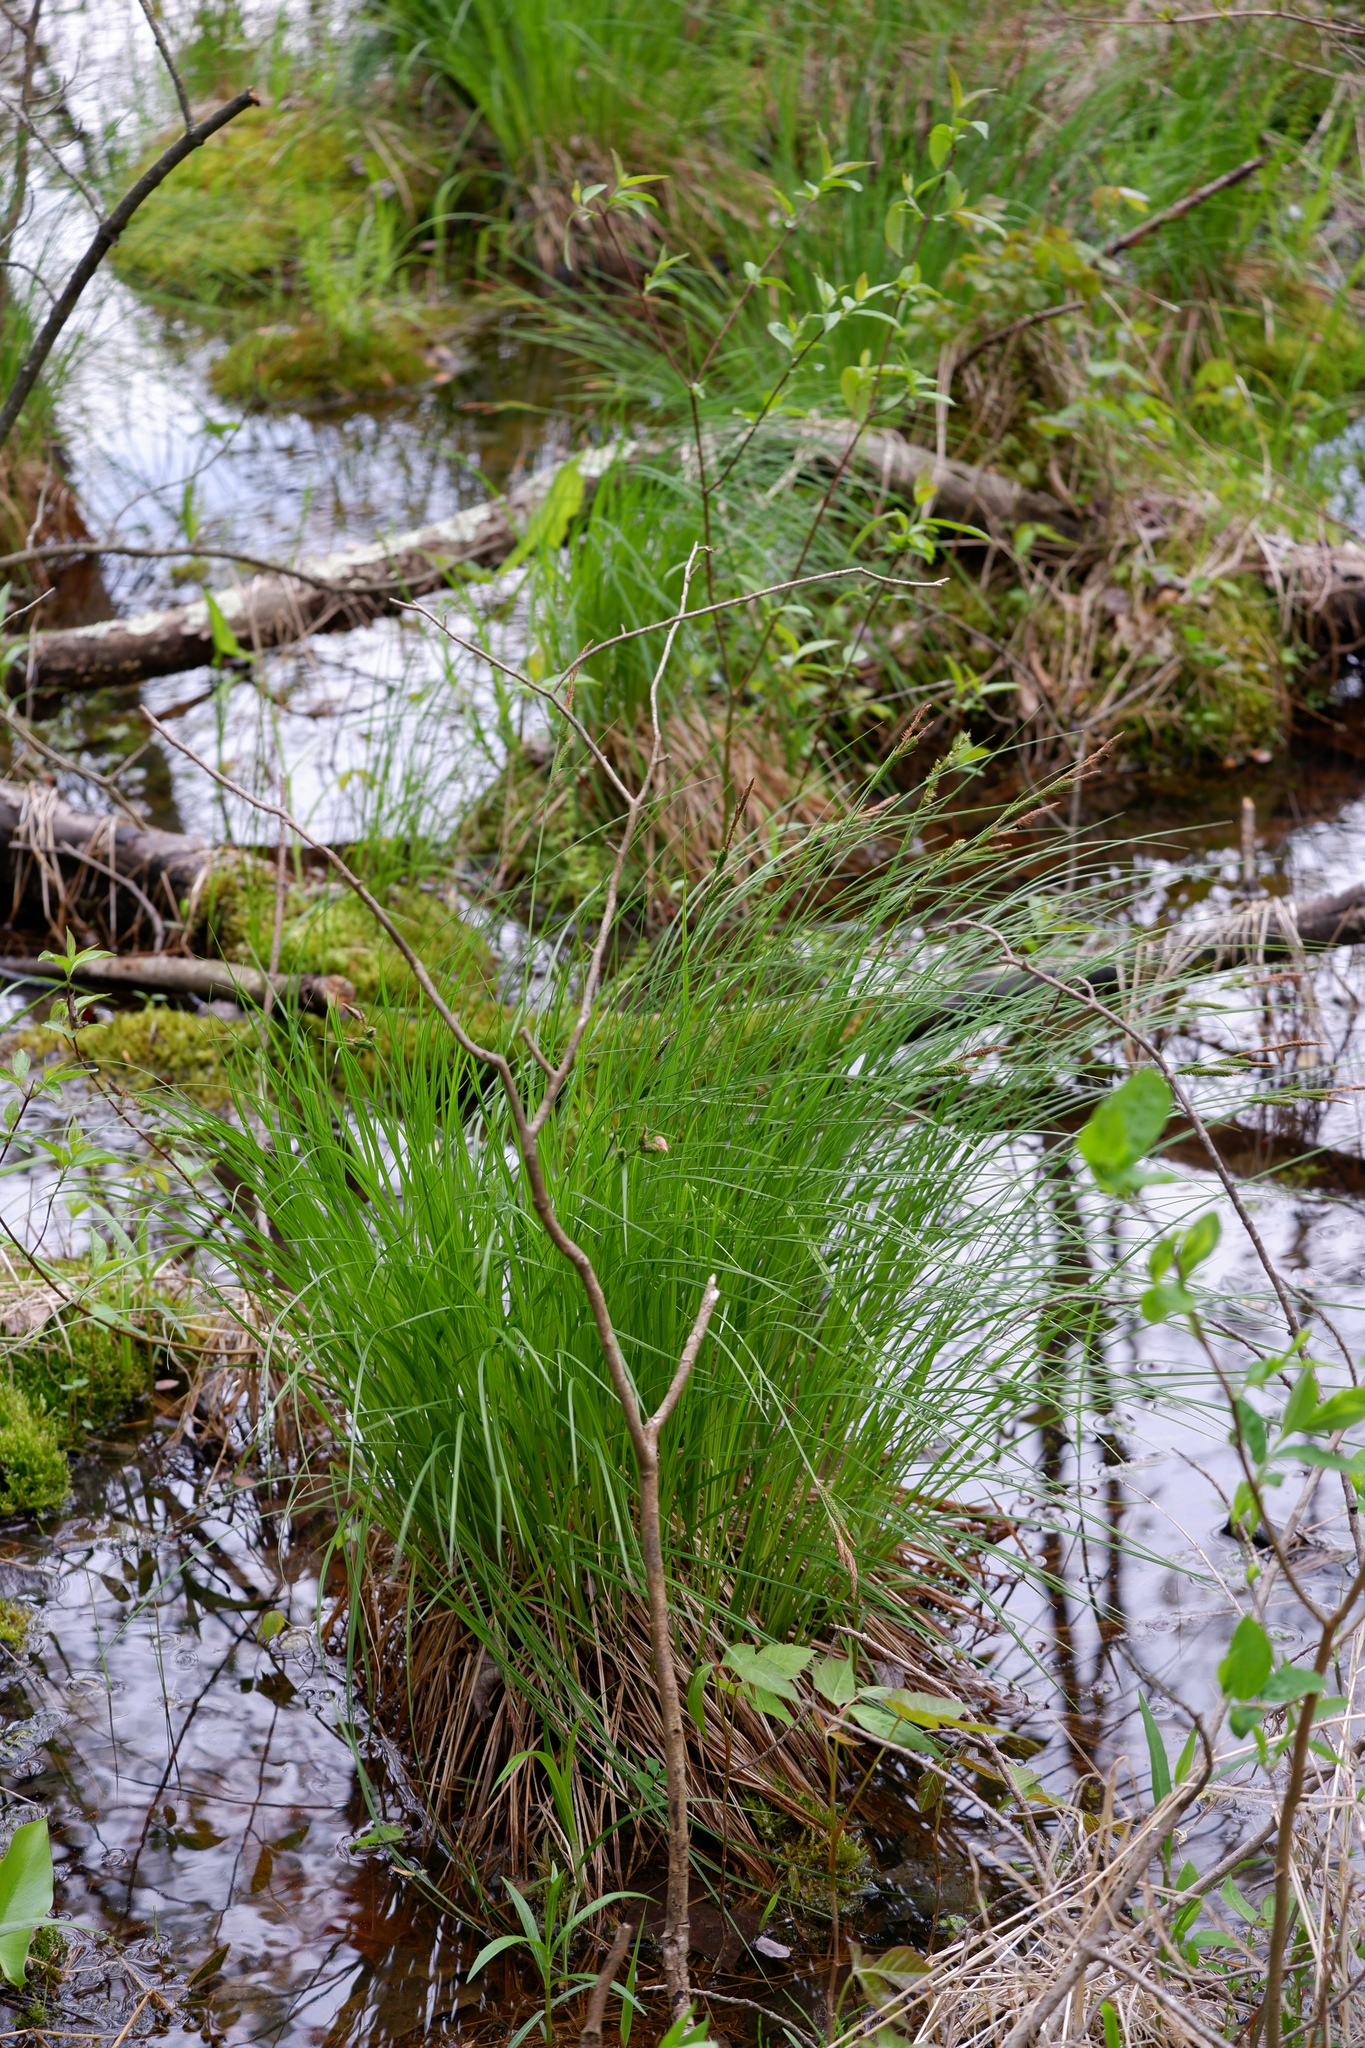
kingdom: Plantae
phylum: Tracheophyta
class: Liliopsida
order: Poales
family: Cyperaceae
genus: Carex
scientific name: Carex stricta
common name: Hummock sedge
